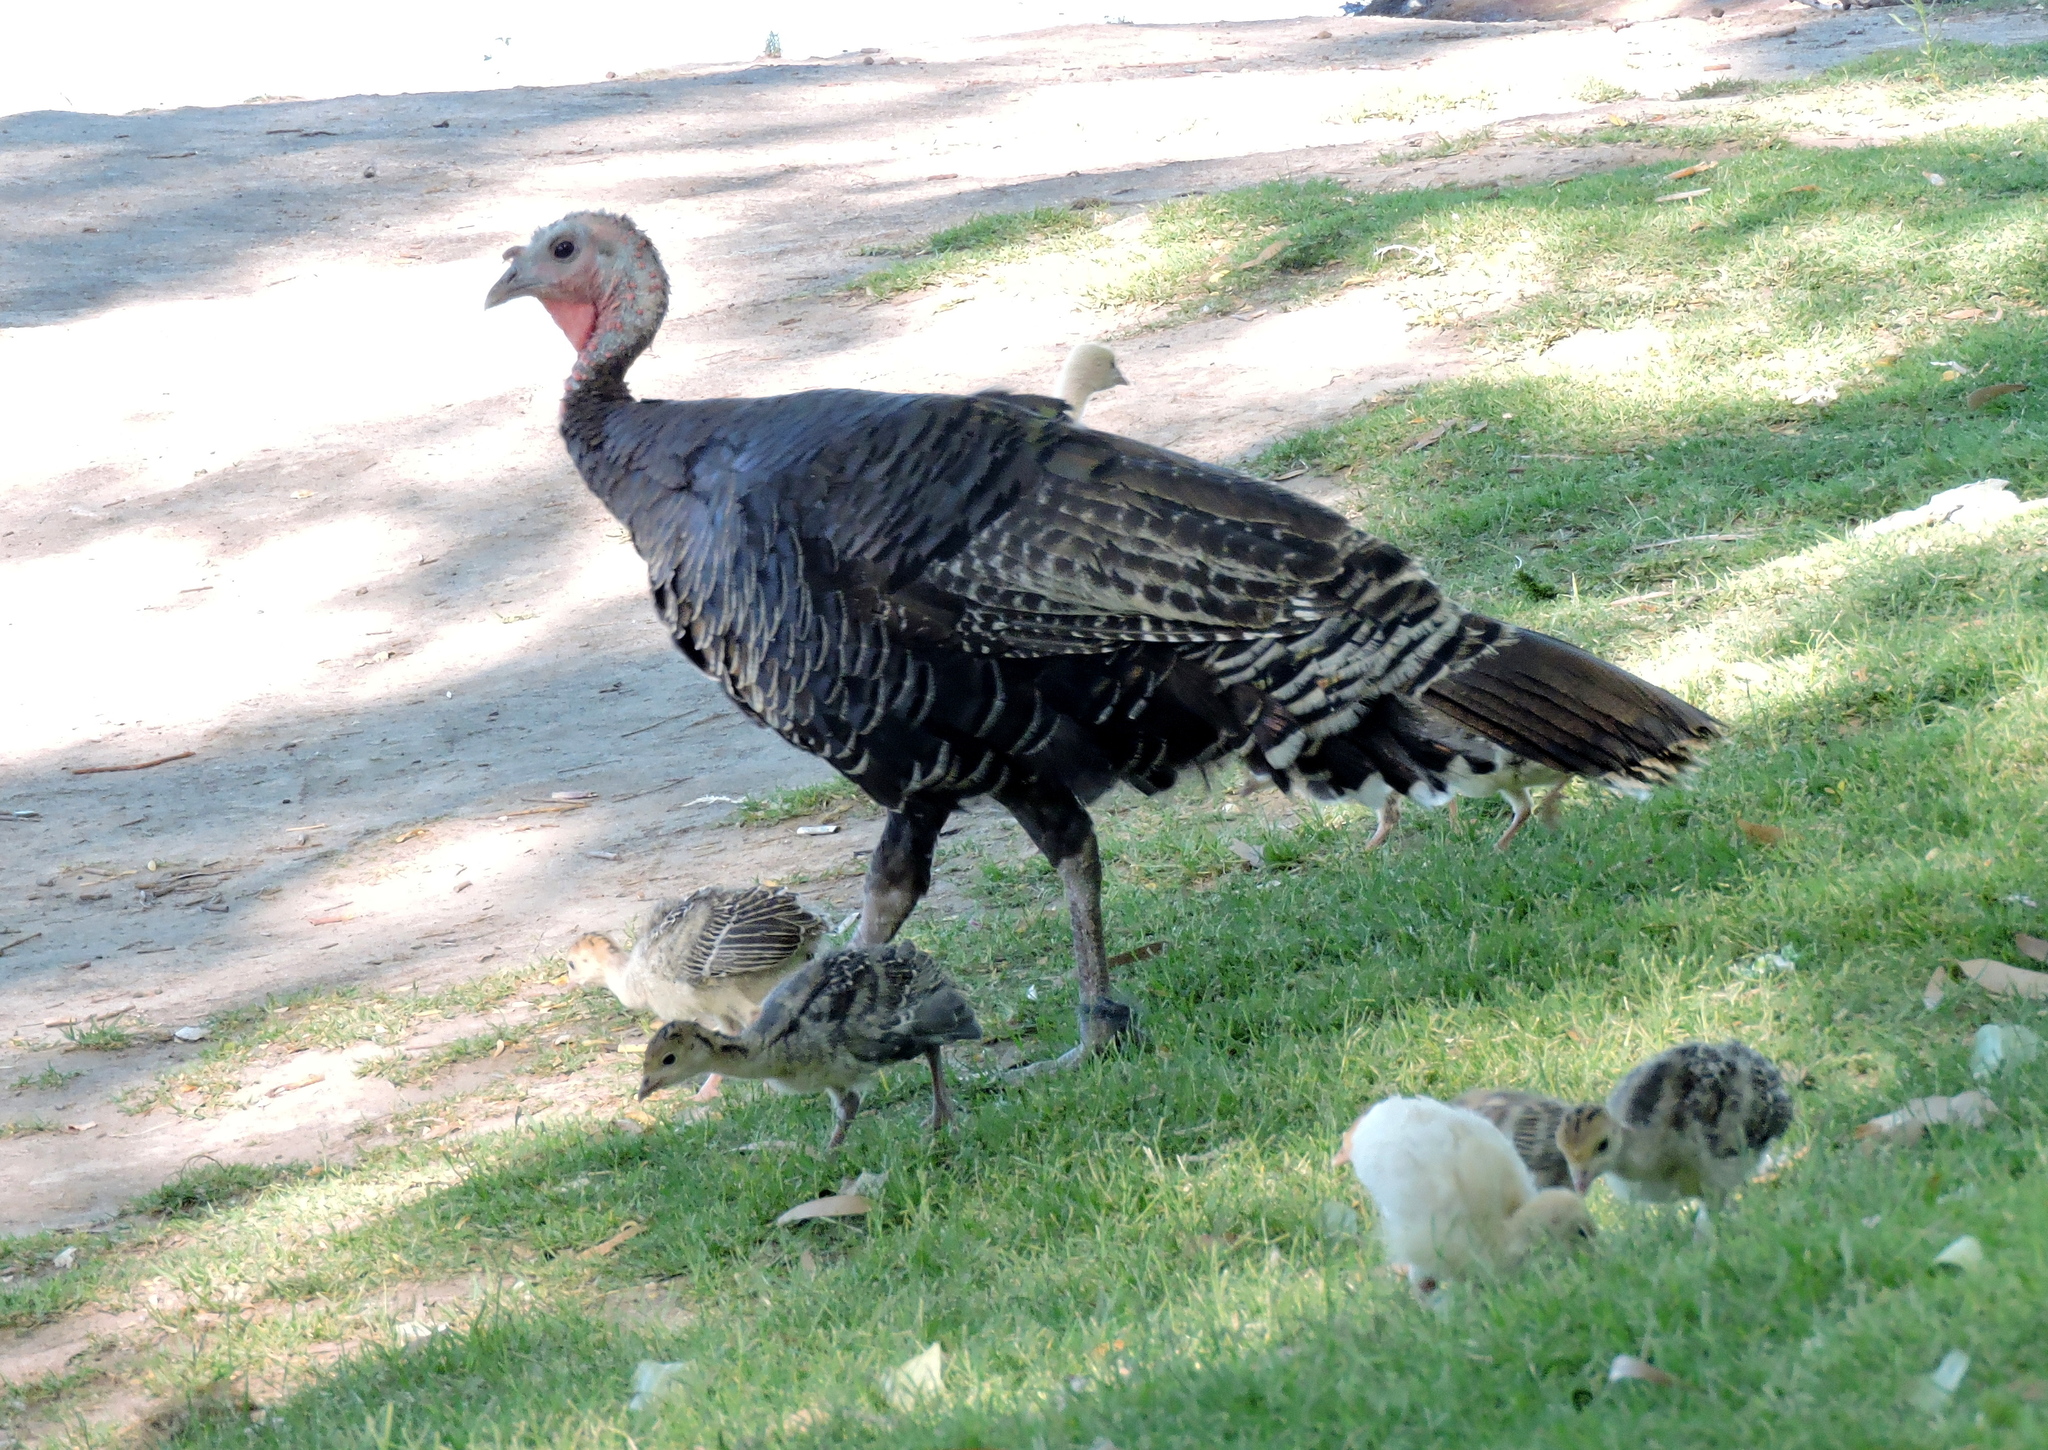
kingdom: Animalia
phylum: Chordata
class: Aves
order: Galliformes
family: Phasianidae
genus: Meleagris
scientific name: Meleagris gallopavo
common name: Wild turkey
